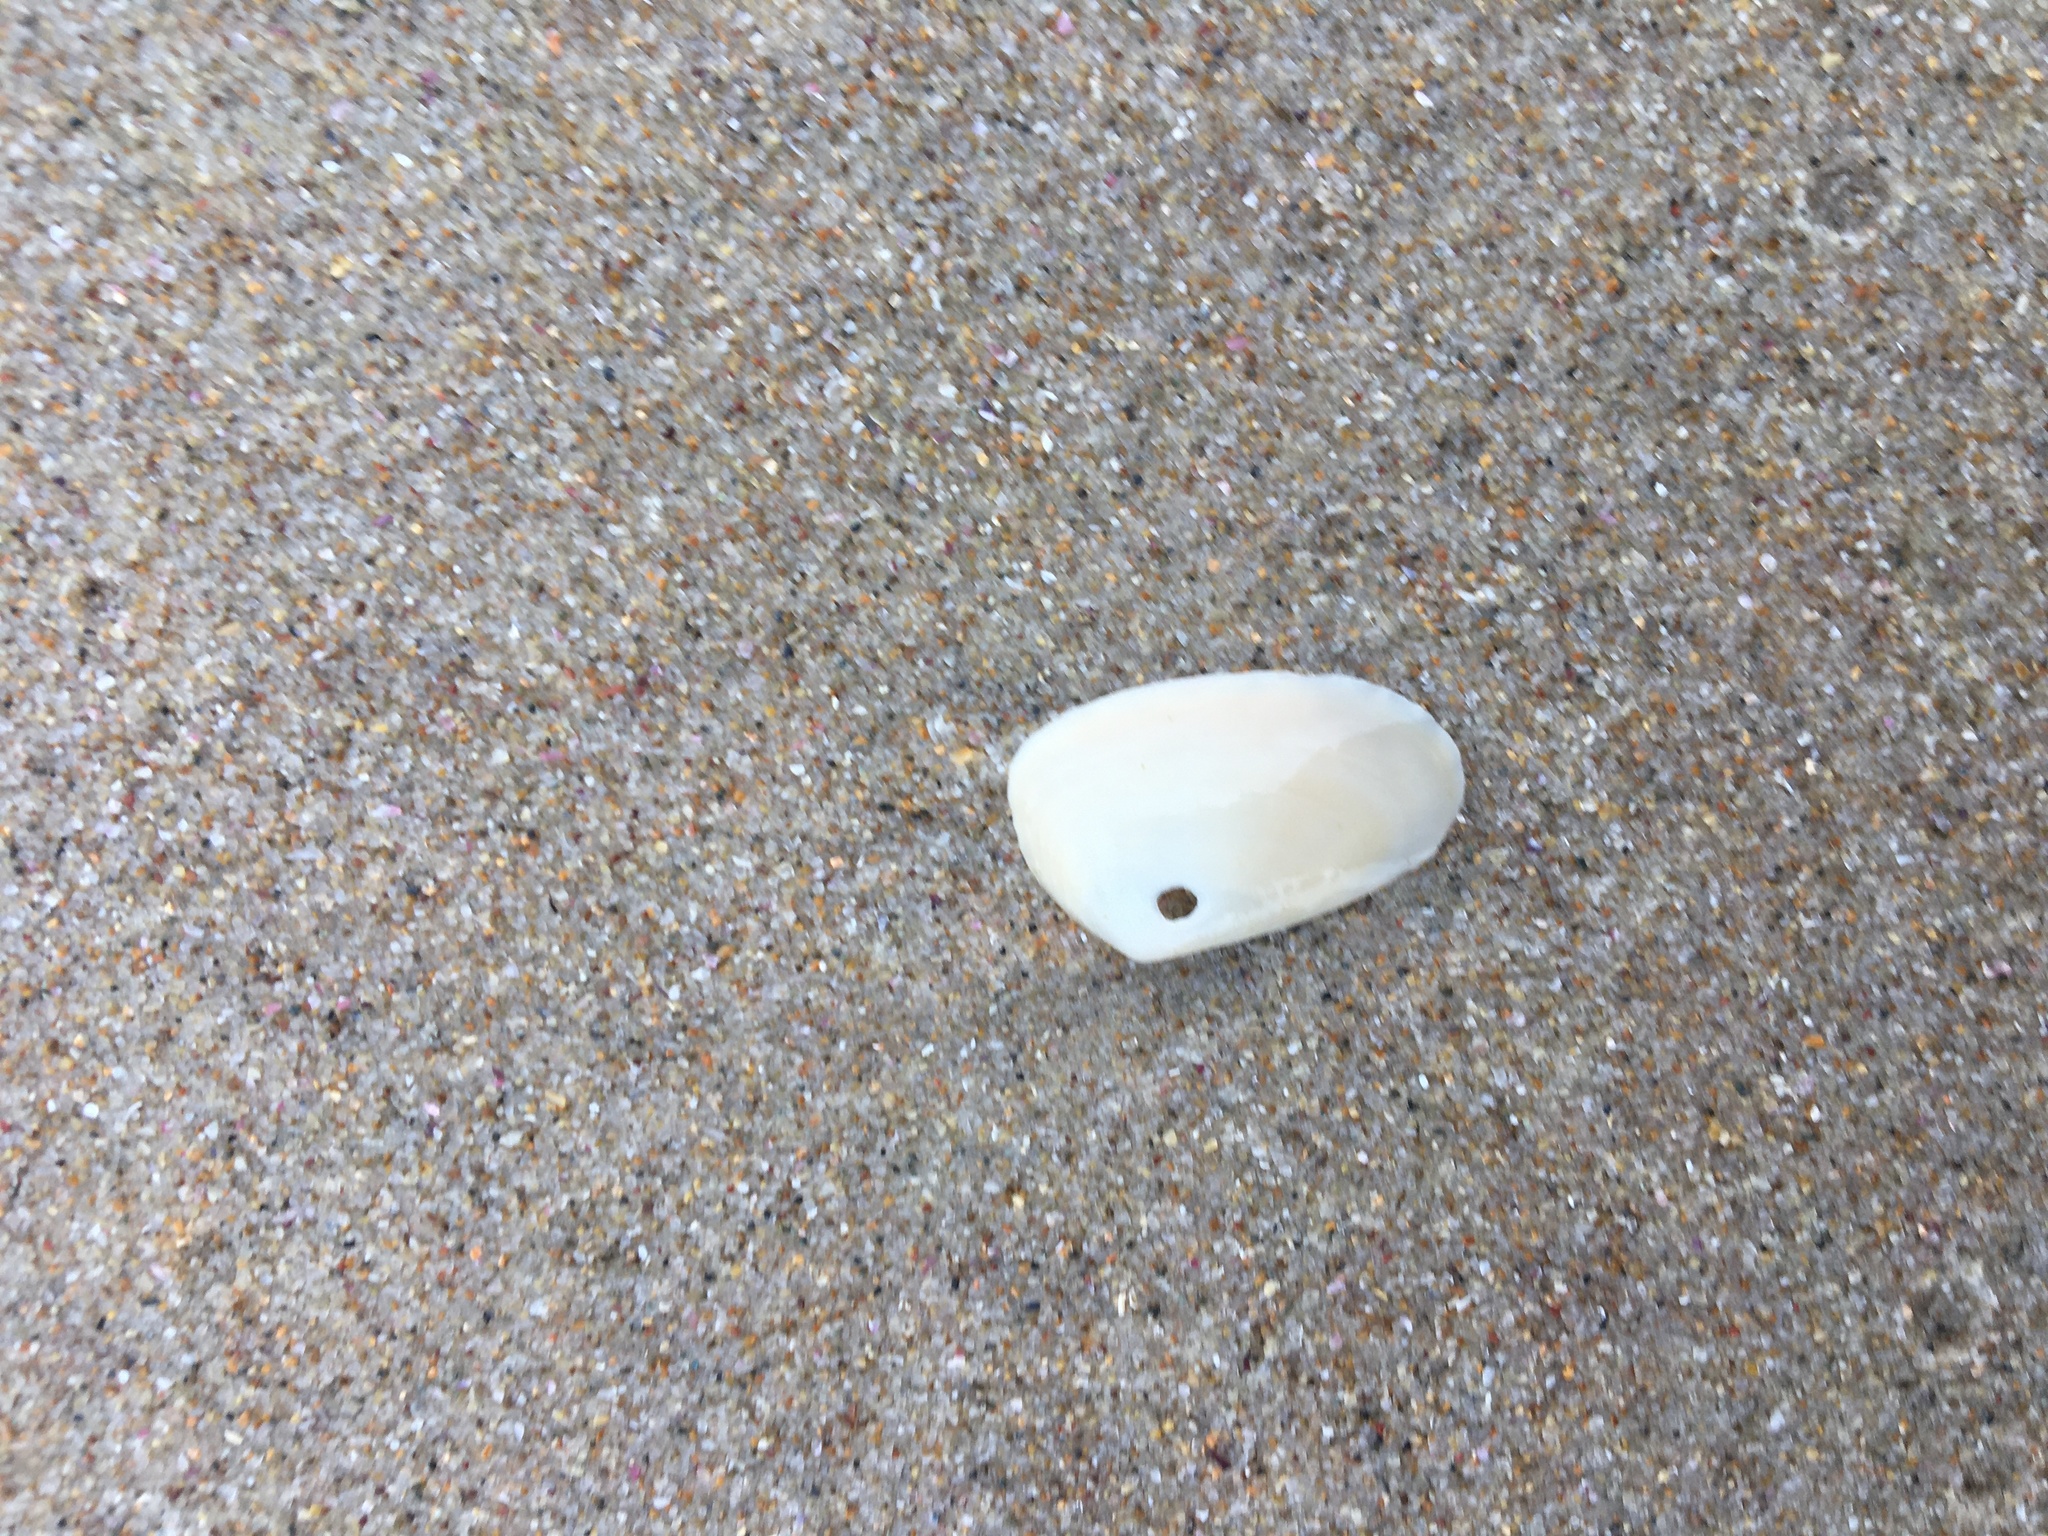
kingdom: Animalia
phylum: Mollusca
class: Bivalvia
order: Venerida
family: Mesodesmatidae
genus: Paphies
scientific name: Paphies angusta
